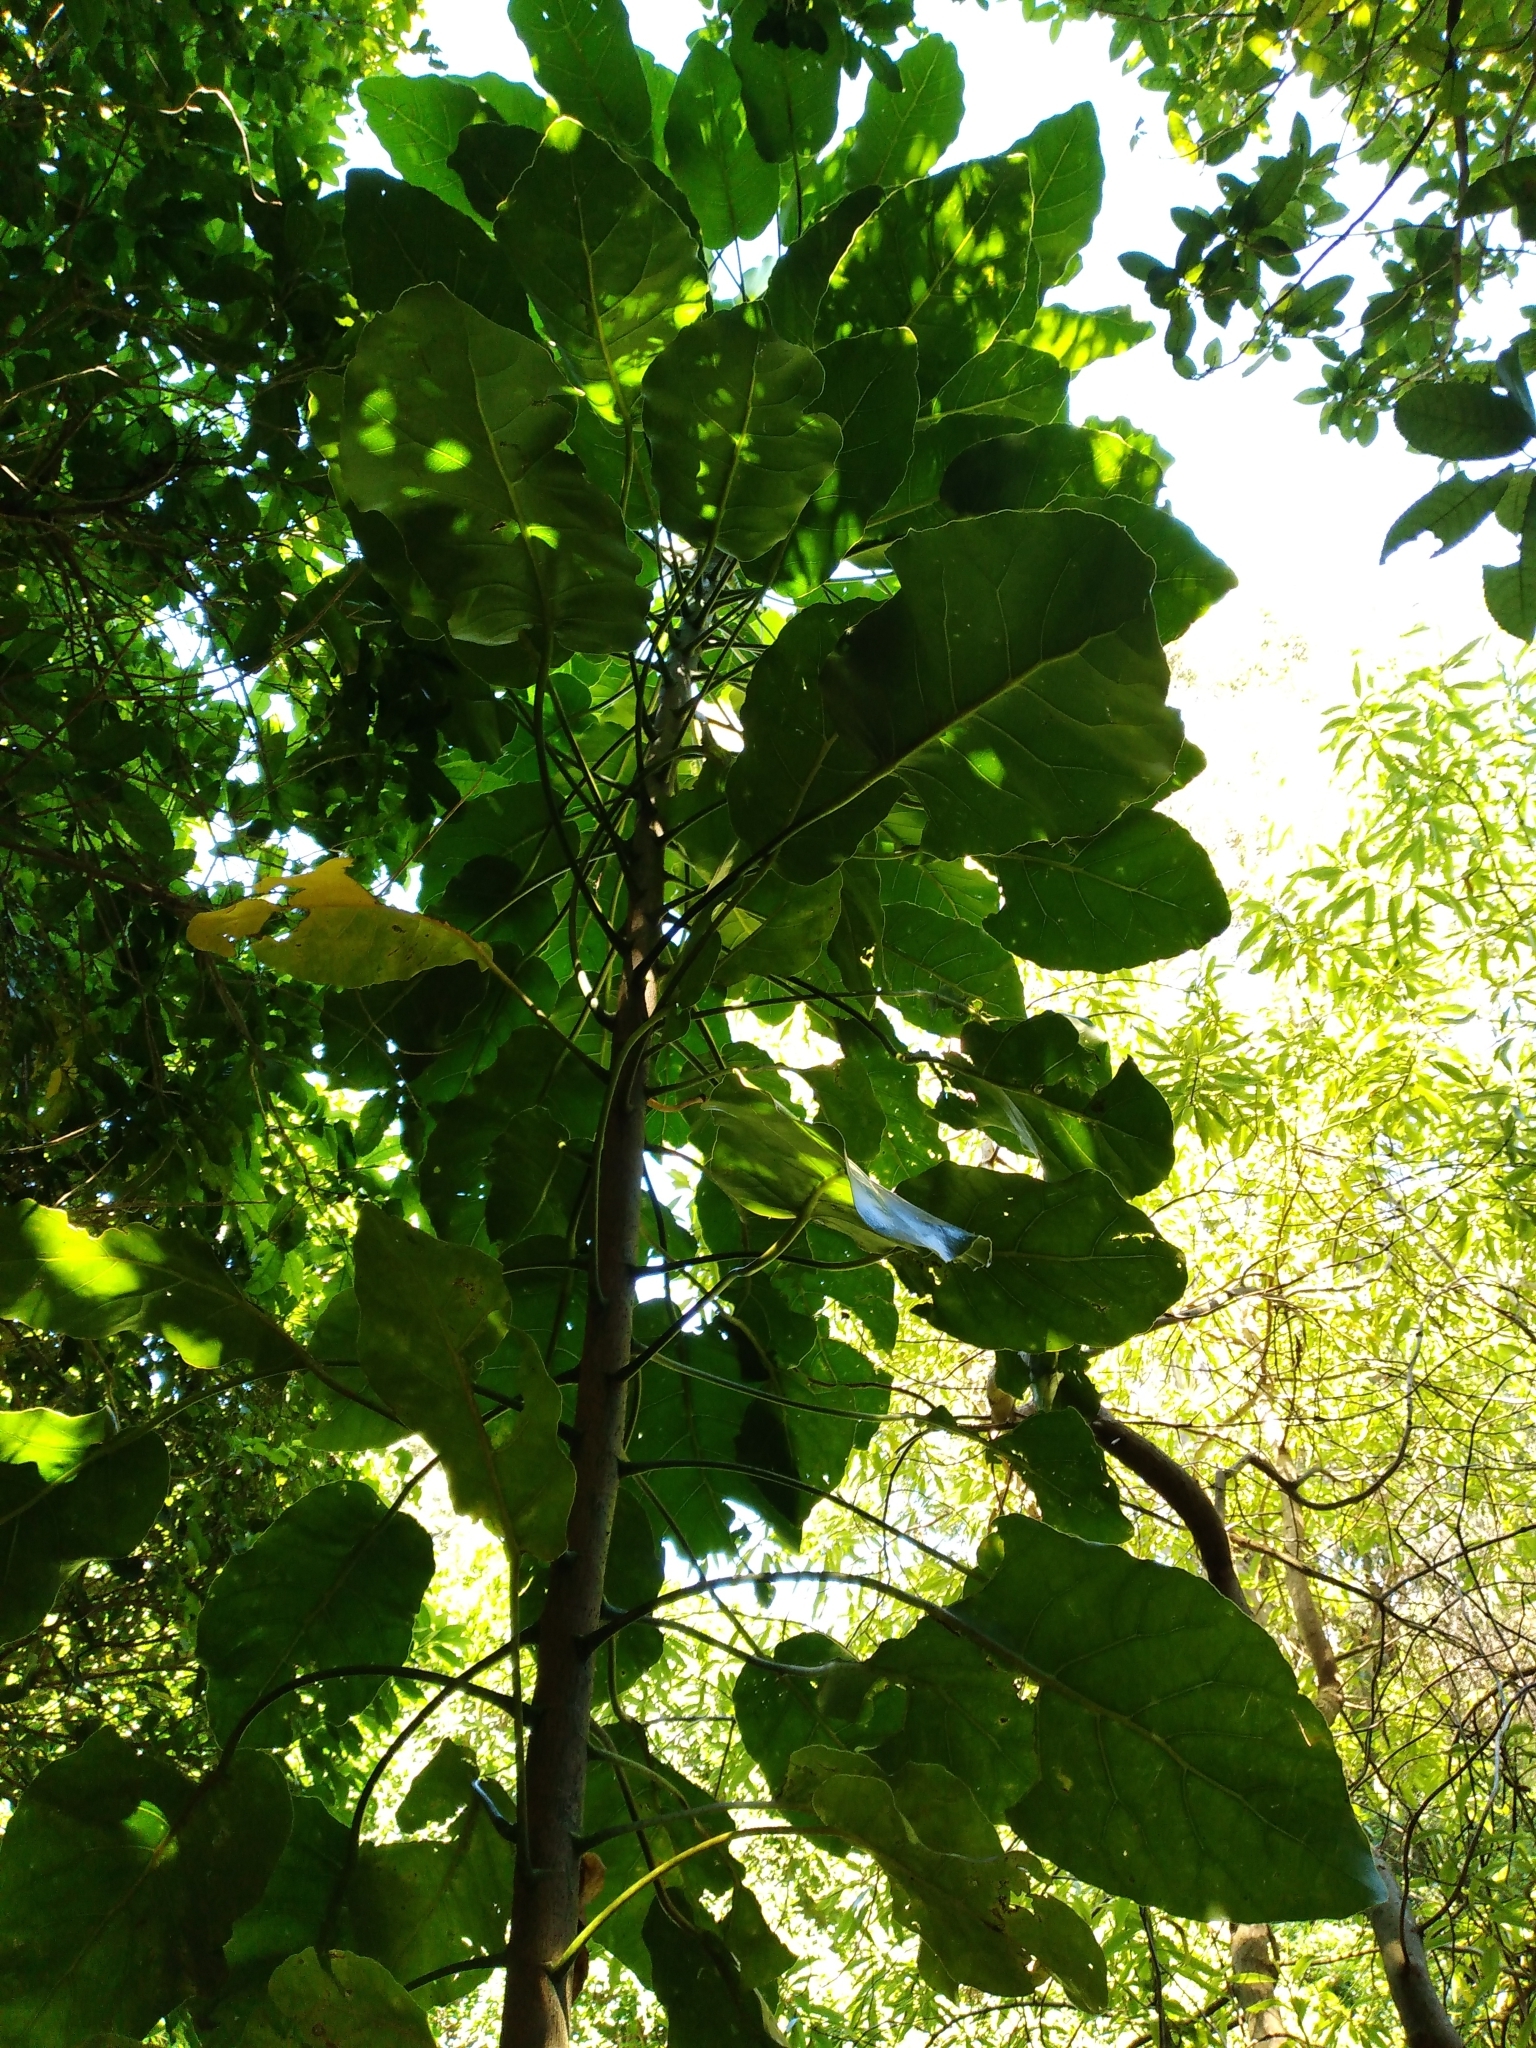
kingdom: Plantae
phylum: Tracheophyta
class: Magnoliopsida
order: Apiales
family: Araliaceae
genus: Meryta
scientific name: Meryta sinclairii
